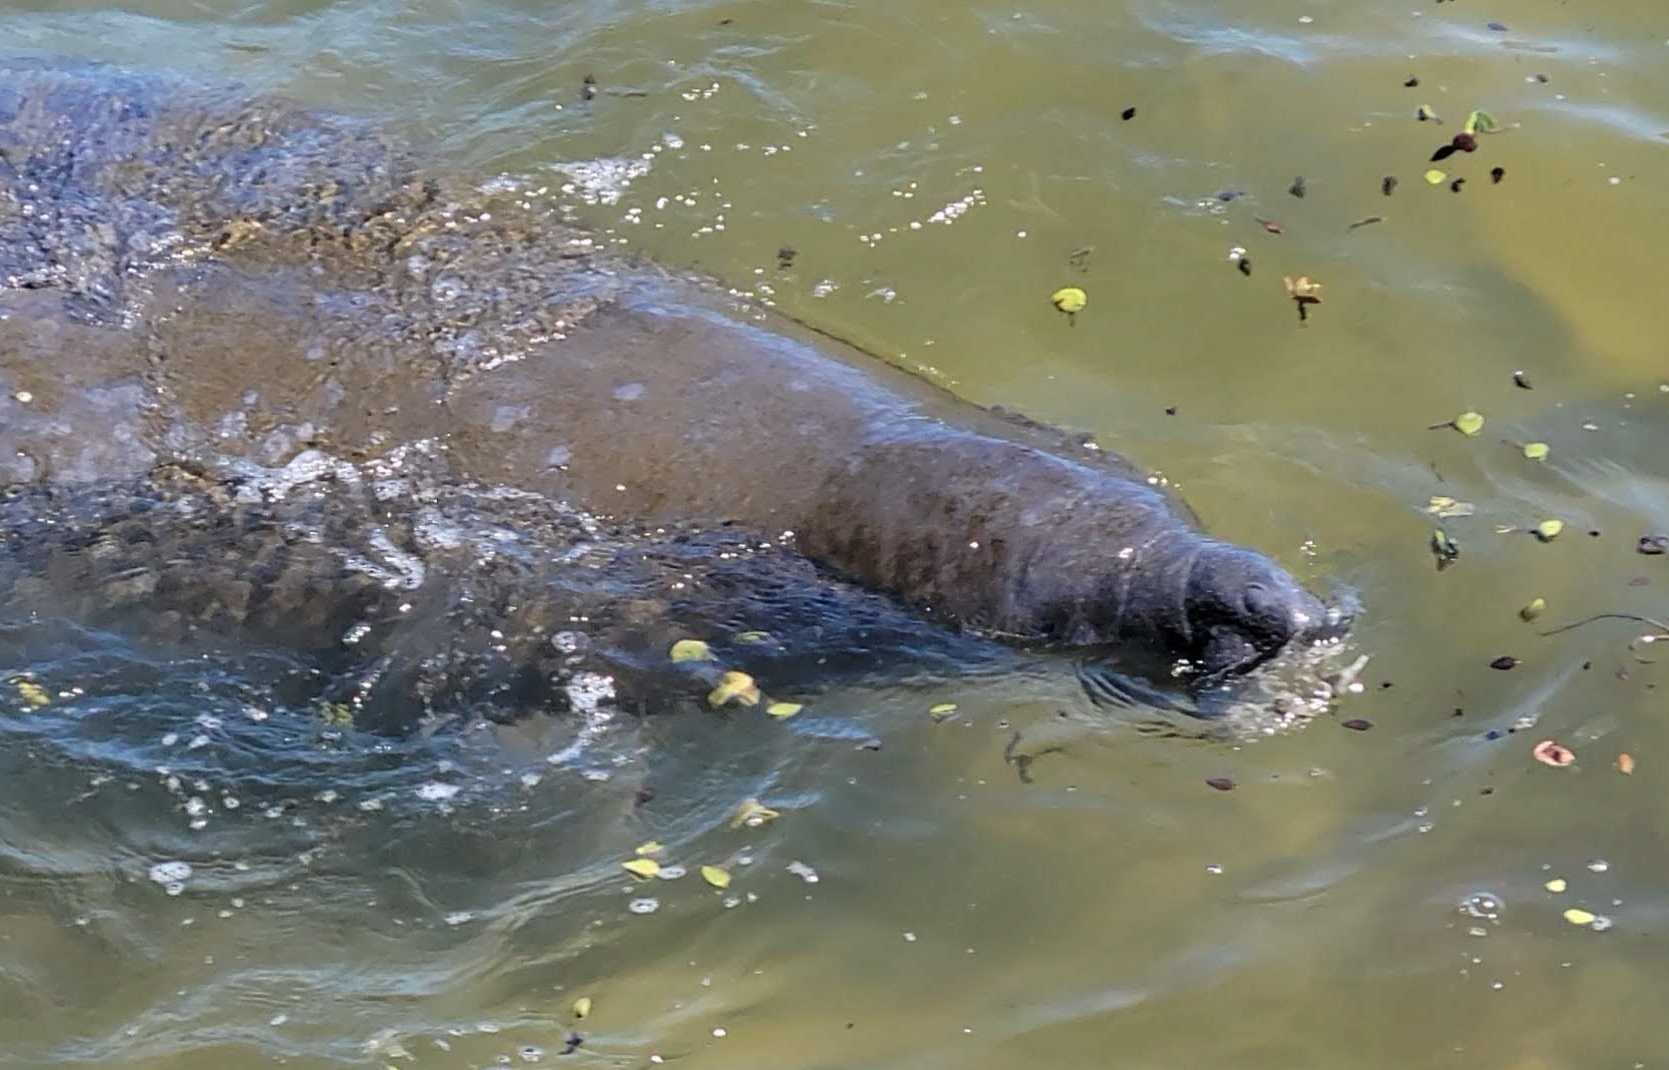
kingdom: Animalia
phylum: Chordata
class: Mammalia
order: Sirenia
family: Trichechidae
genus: Trichechus
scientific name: Trichechus manatus
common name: West indian manatee
